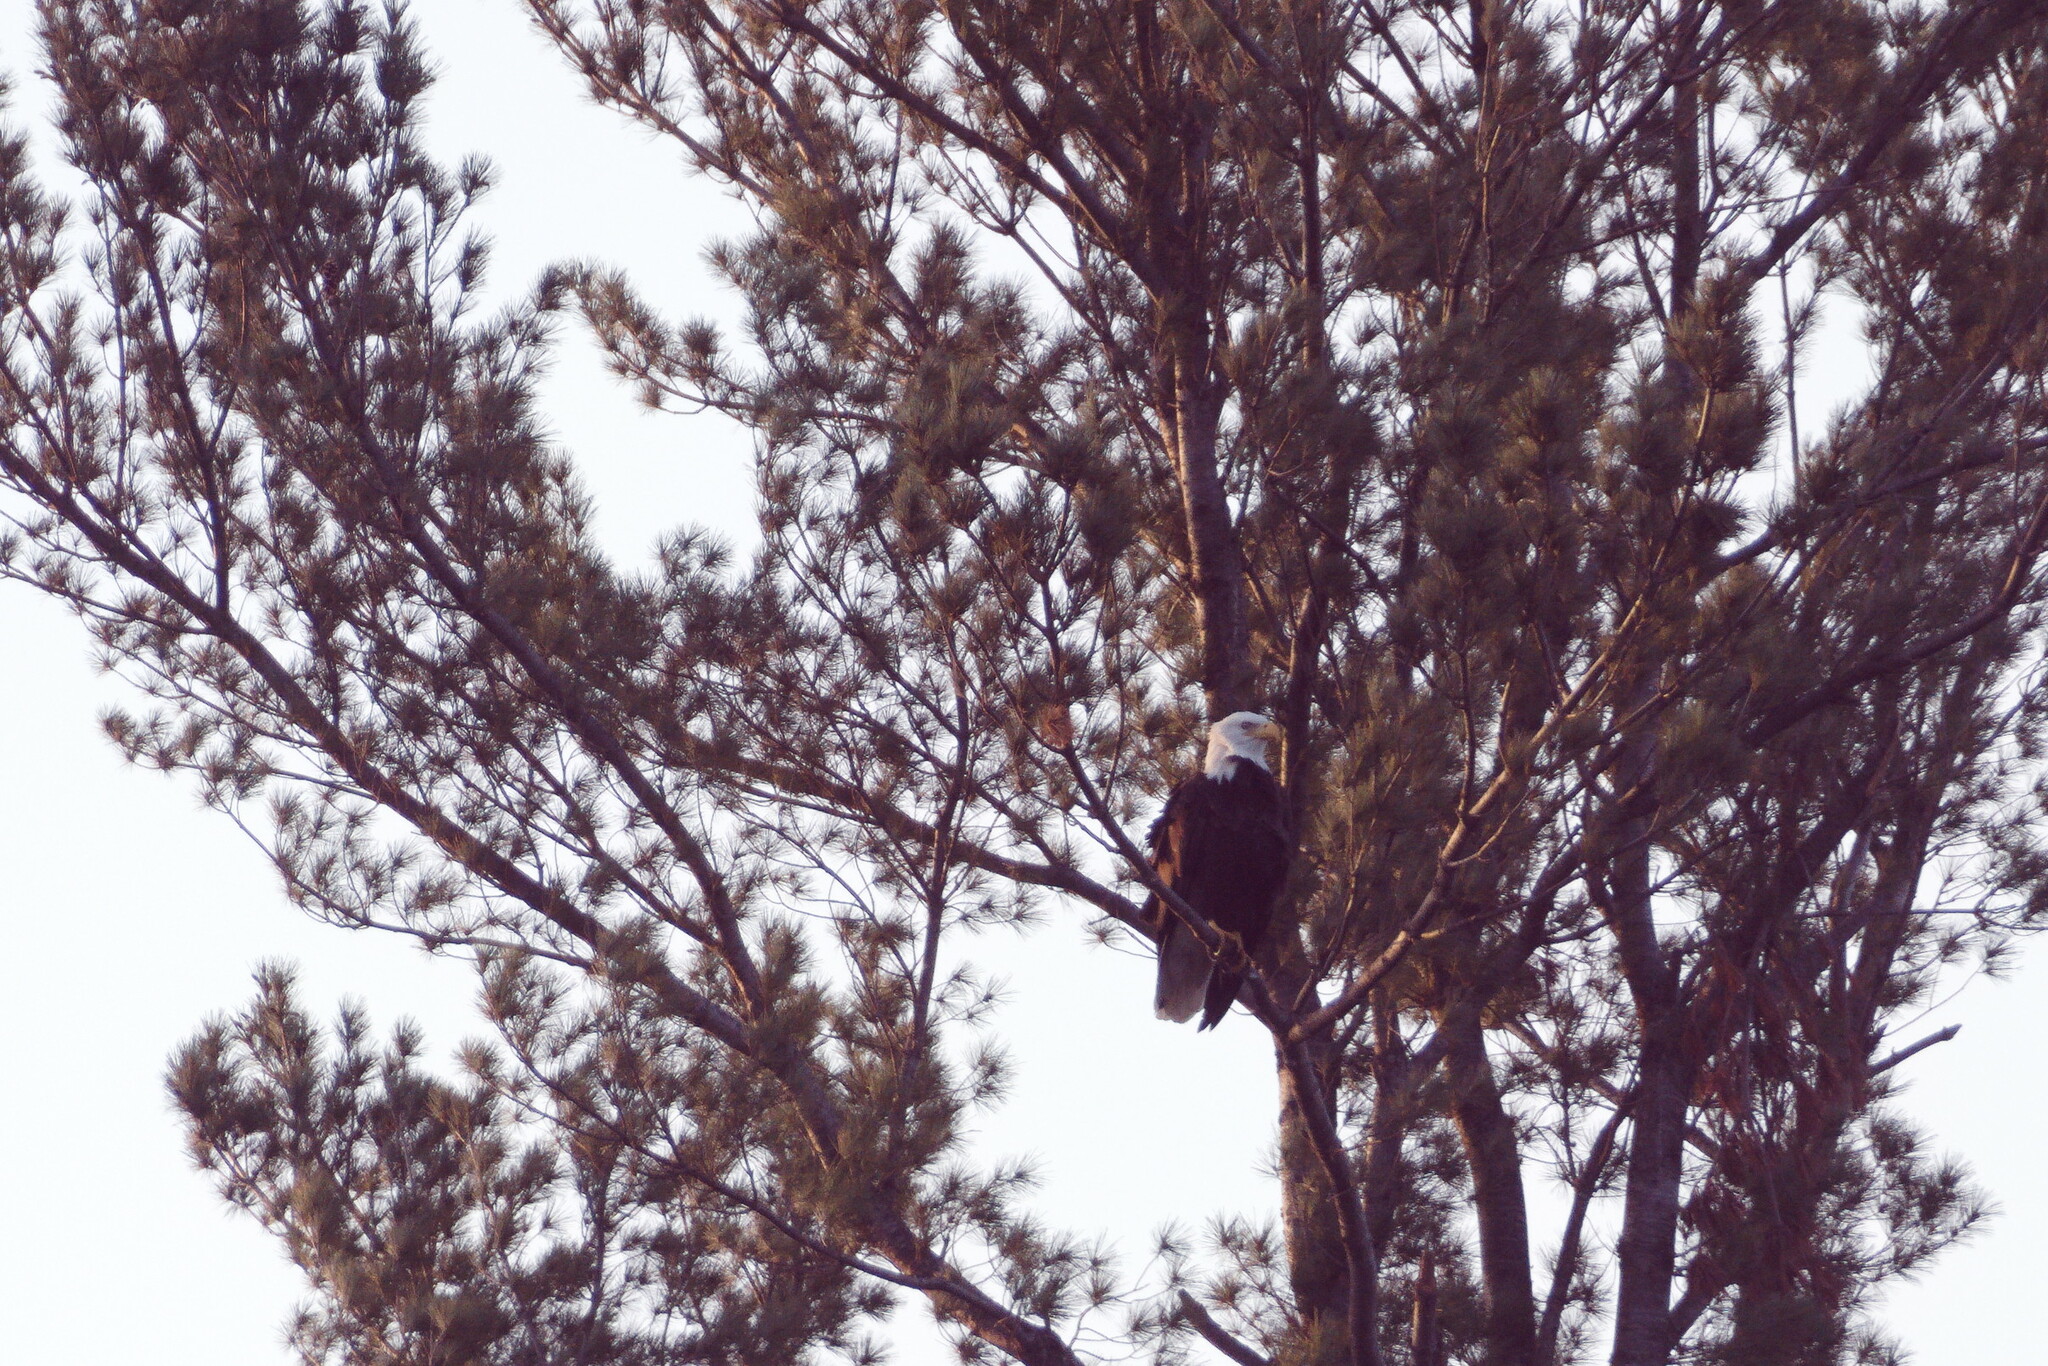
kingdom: Animalia
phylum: Chordata
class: Aves
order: Accipitriformes
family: Accipitridae
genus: Haliaeetus
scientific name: Haliaeetus leucocephalus
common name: Bald eagle
